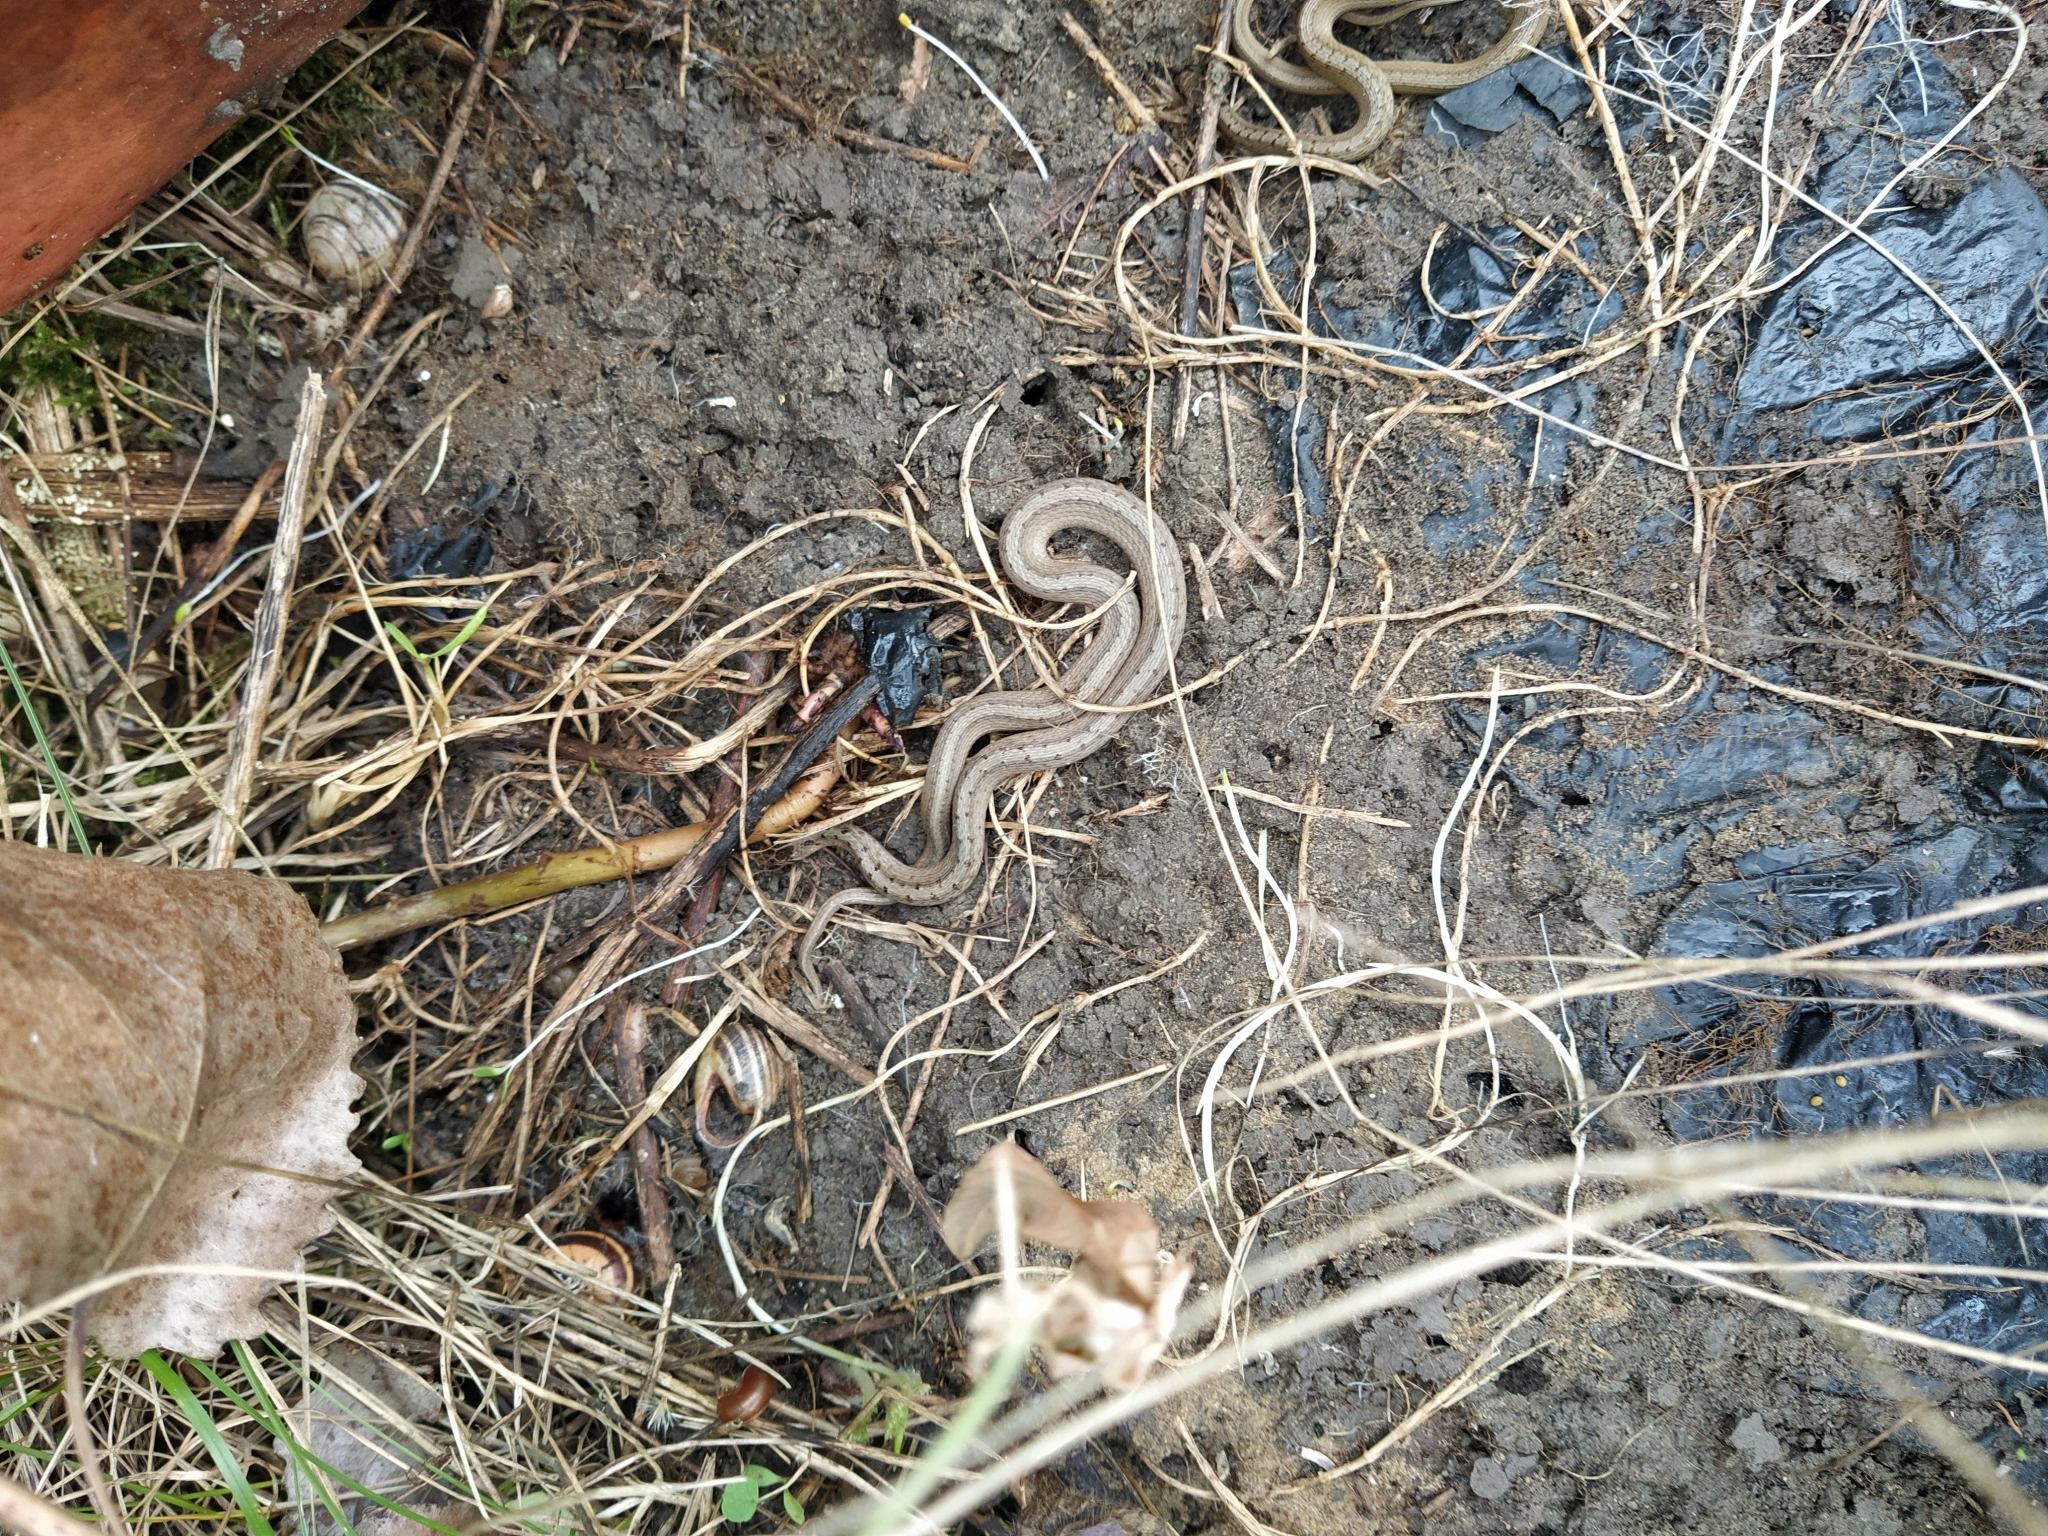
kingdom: Animalia
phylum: Chordata
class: Squamata
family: Colubridae
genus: Storeria
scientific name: Storeria dekayi
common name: (dekay’s) brown snake
